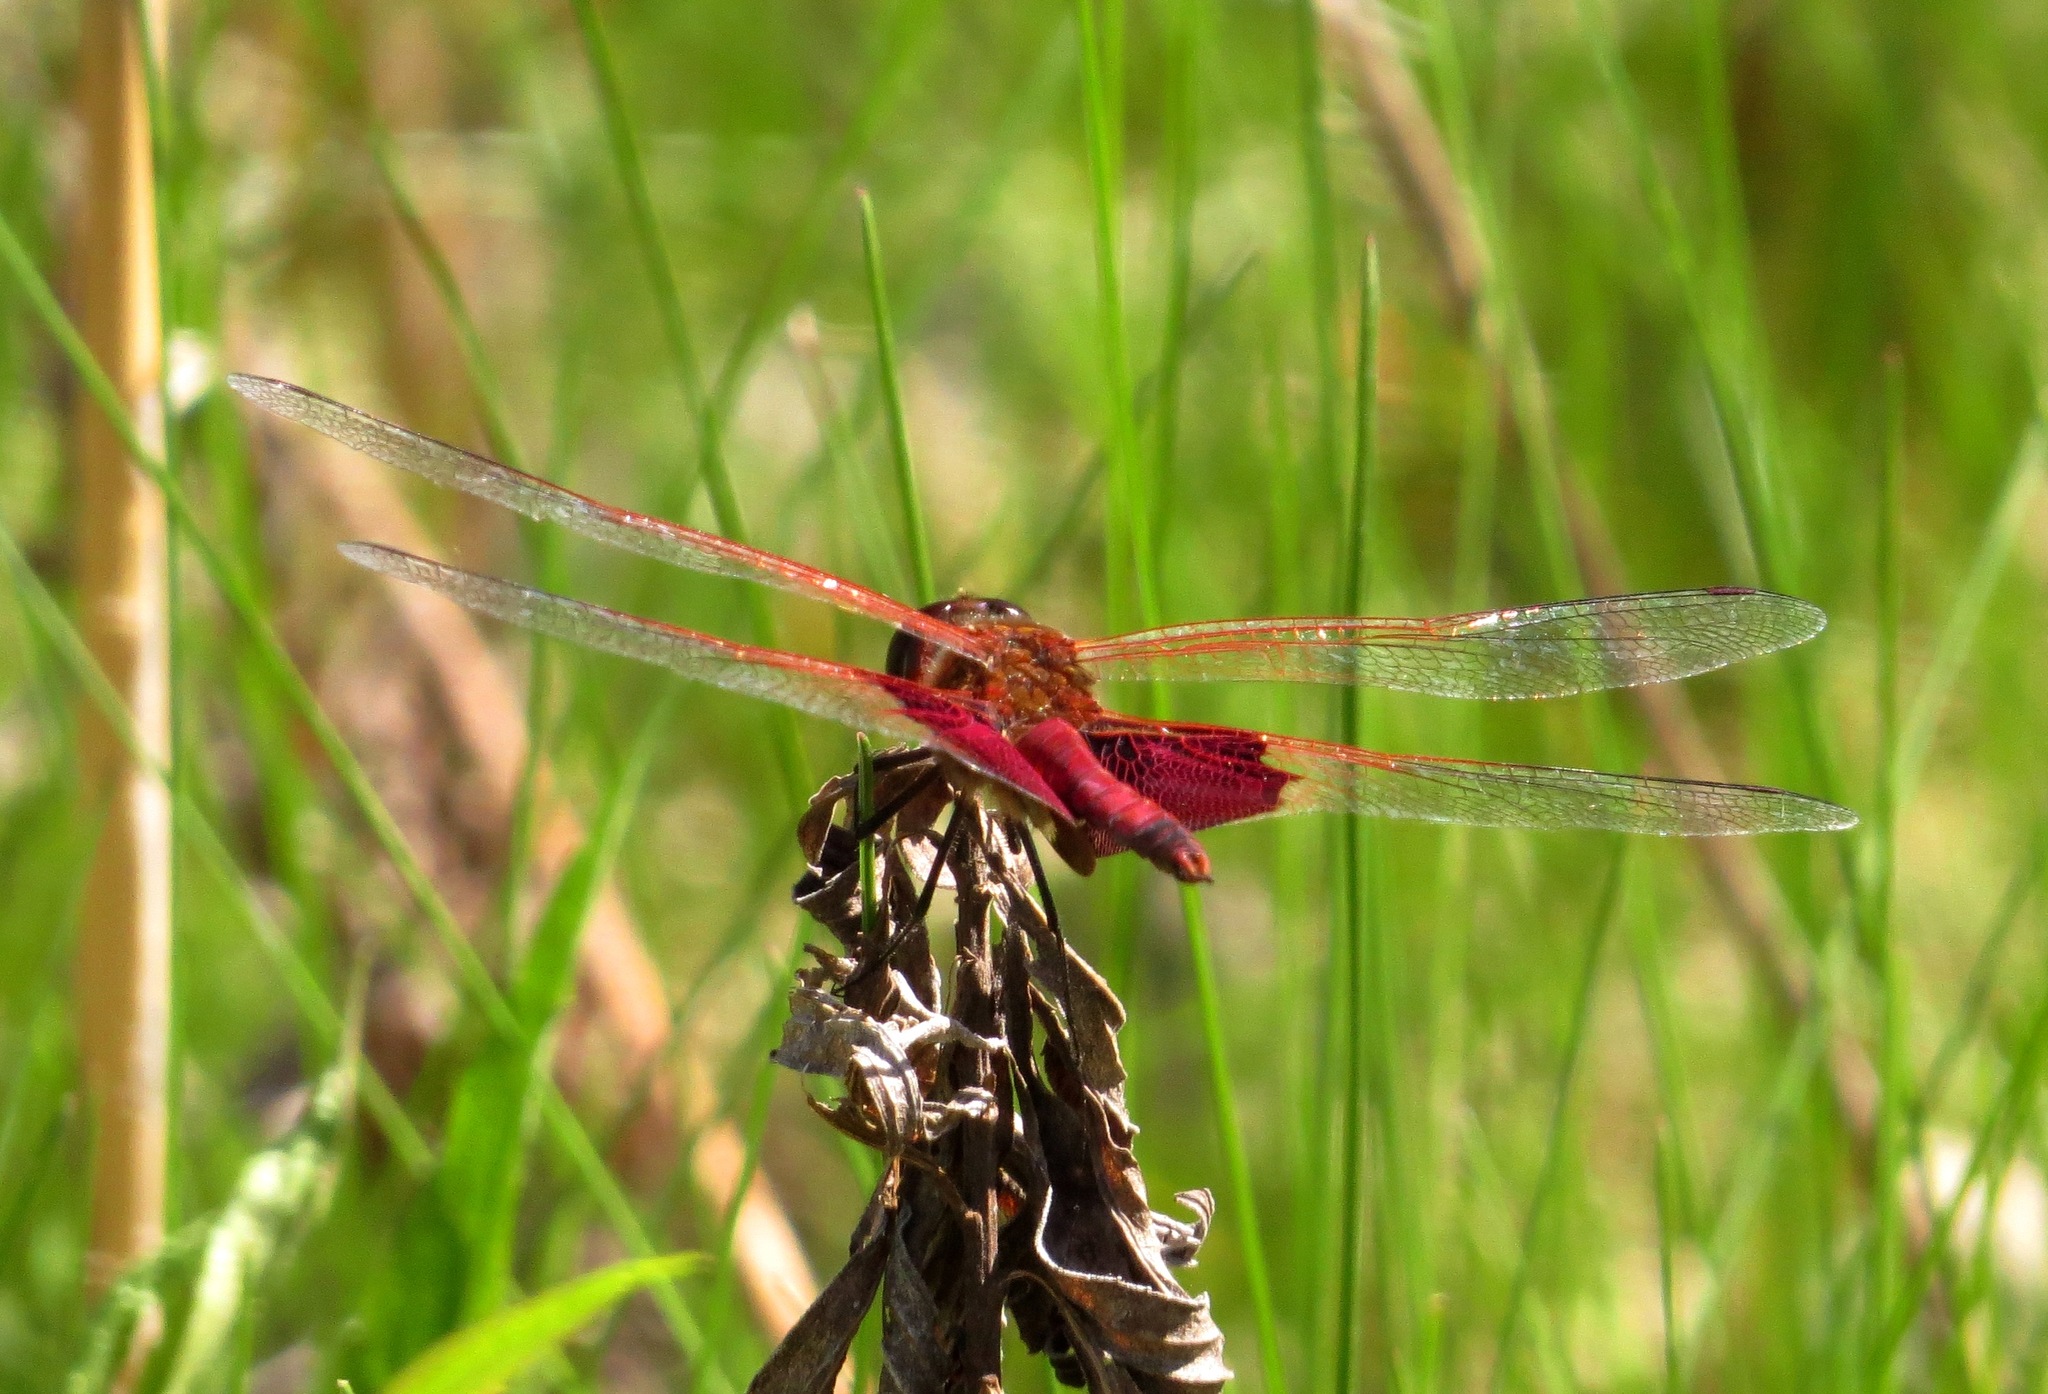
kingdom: Animalia
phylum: Arthropoda
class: Insecta
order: Odonata
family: Libellulidae
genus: Tramea
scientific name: Tramea carolina
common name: Carolina saddlebags
